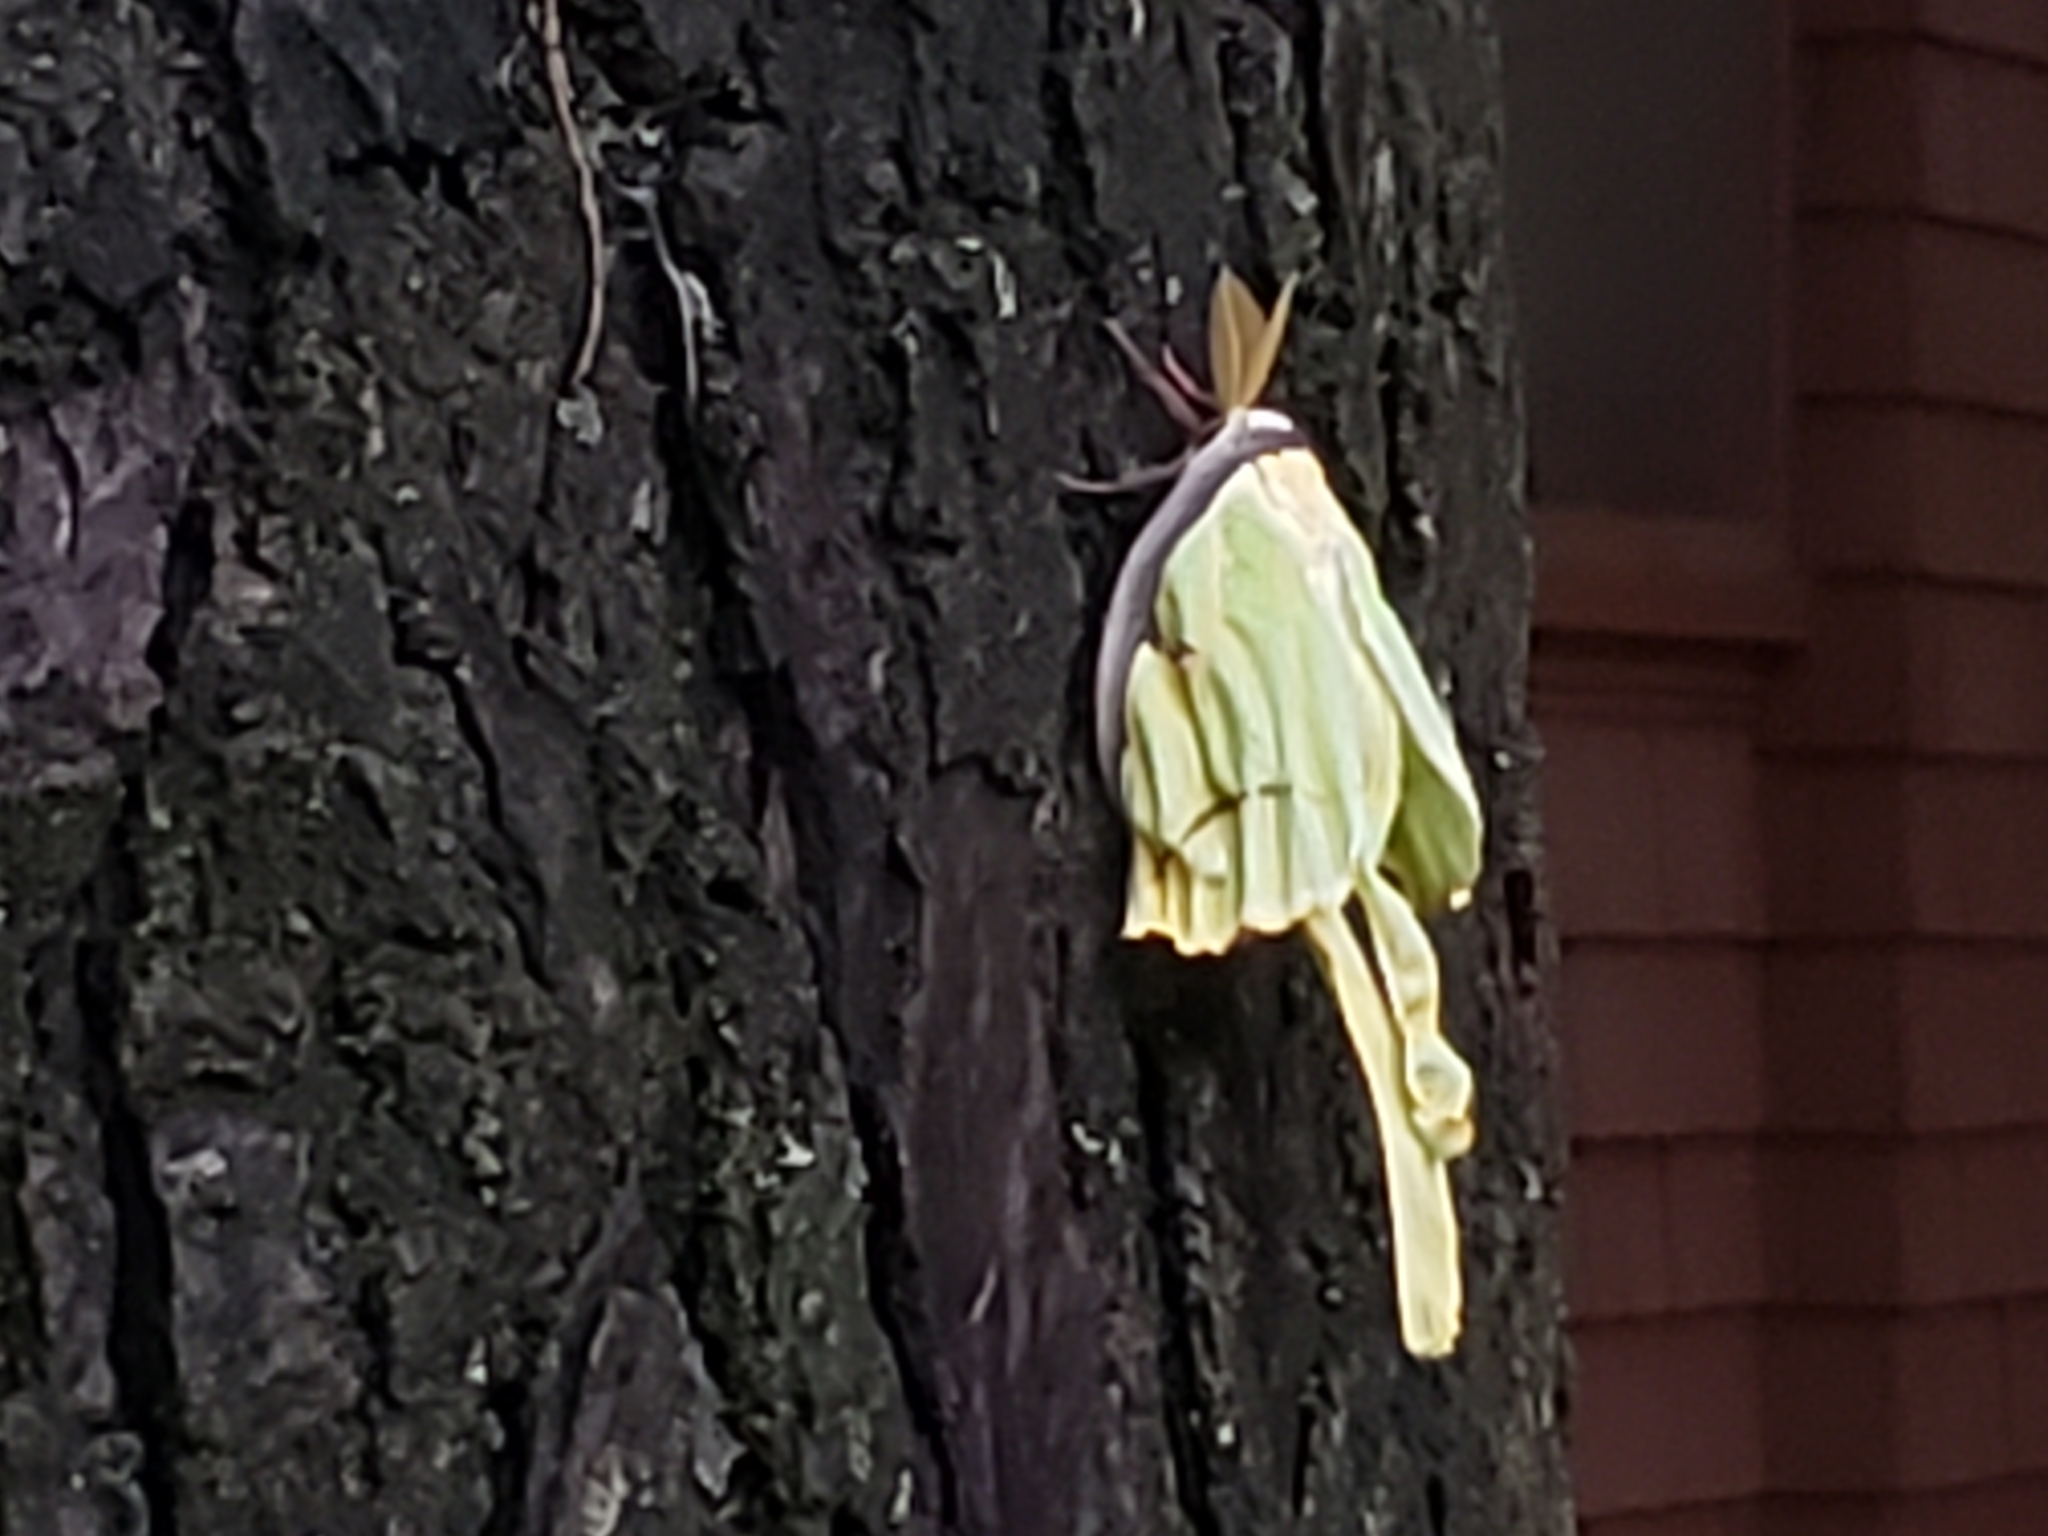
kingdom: Animalia
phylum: Arthropoda
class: Insecta
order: Lepidoptera
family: Saturniidae
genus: Actias
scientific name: Actias luna
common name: Luna moth
